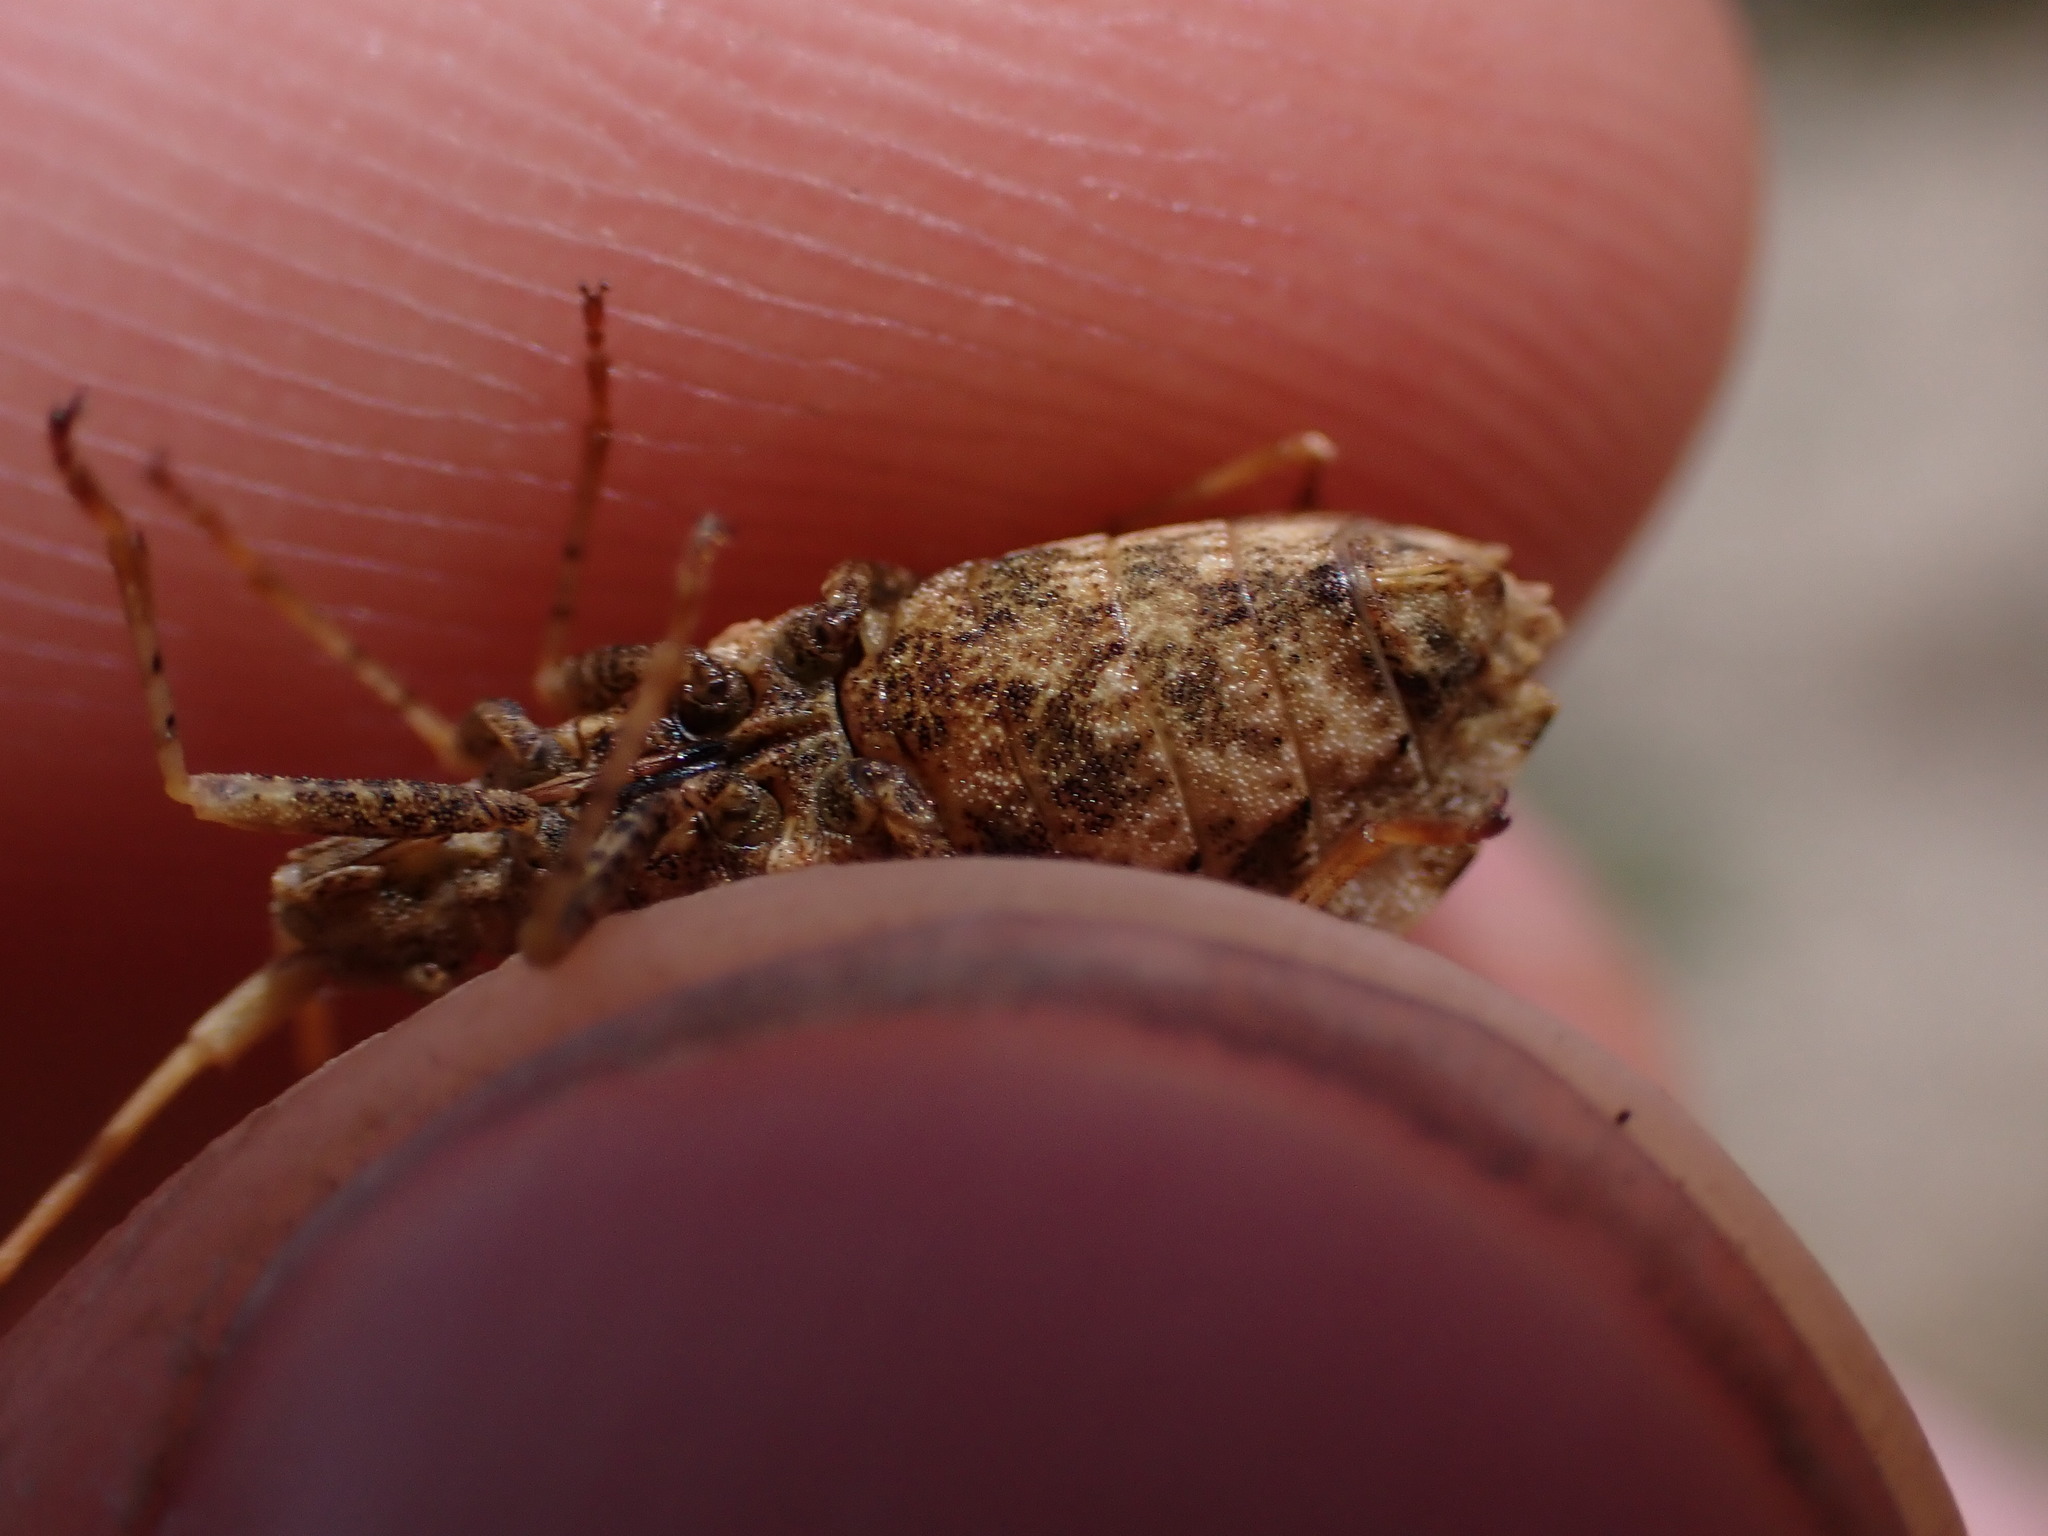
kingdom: Animalia
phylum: Arthropoda
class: Insecta
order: Hemiptera
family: Coreidae
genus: Centrocoris
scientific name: Centrocoris spiniger
